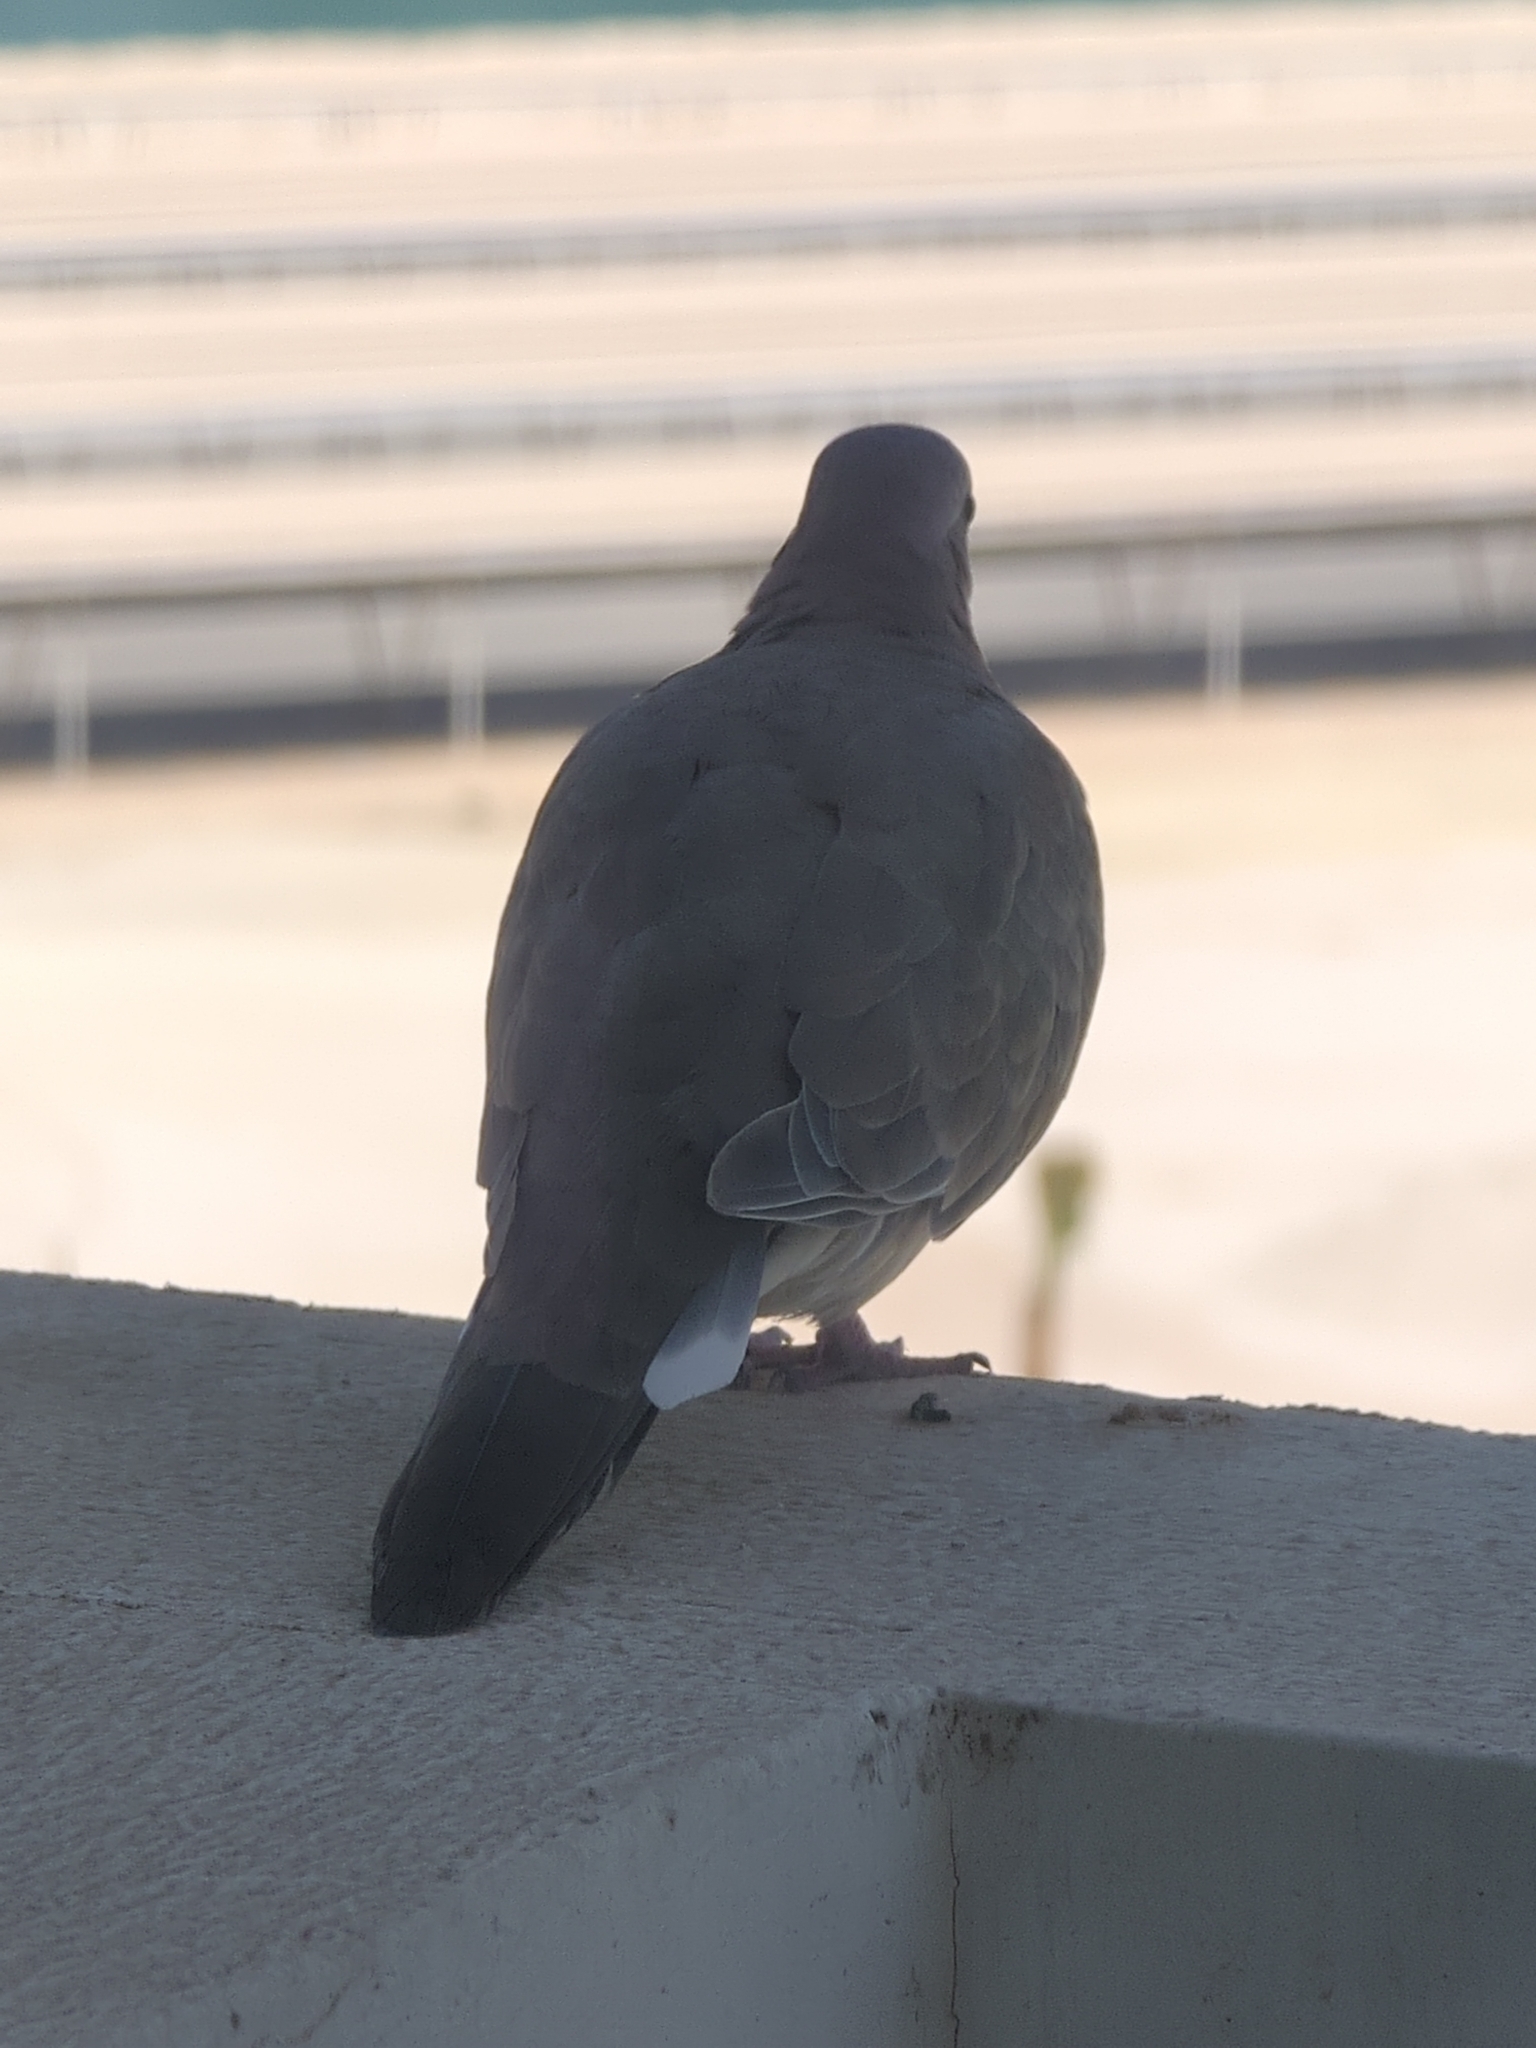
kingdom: Animalia
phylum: Chordata
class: Aves
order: Columbiformes
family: Columbidae
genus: Spilopelia
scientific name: Spilopelia senegalensis
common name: Laughing dove
